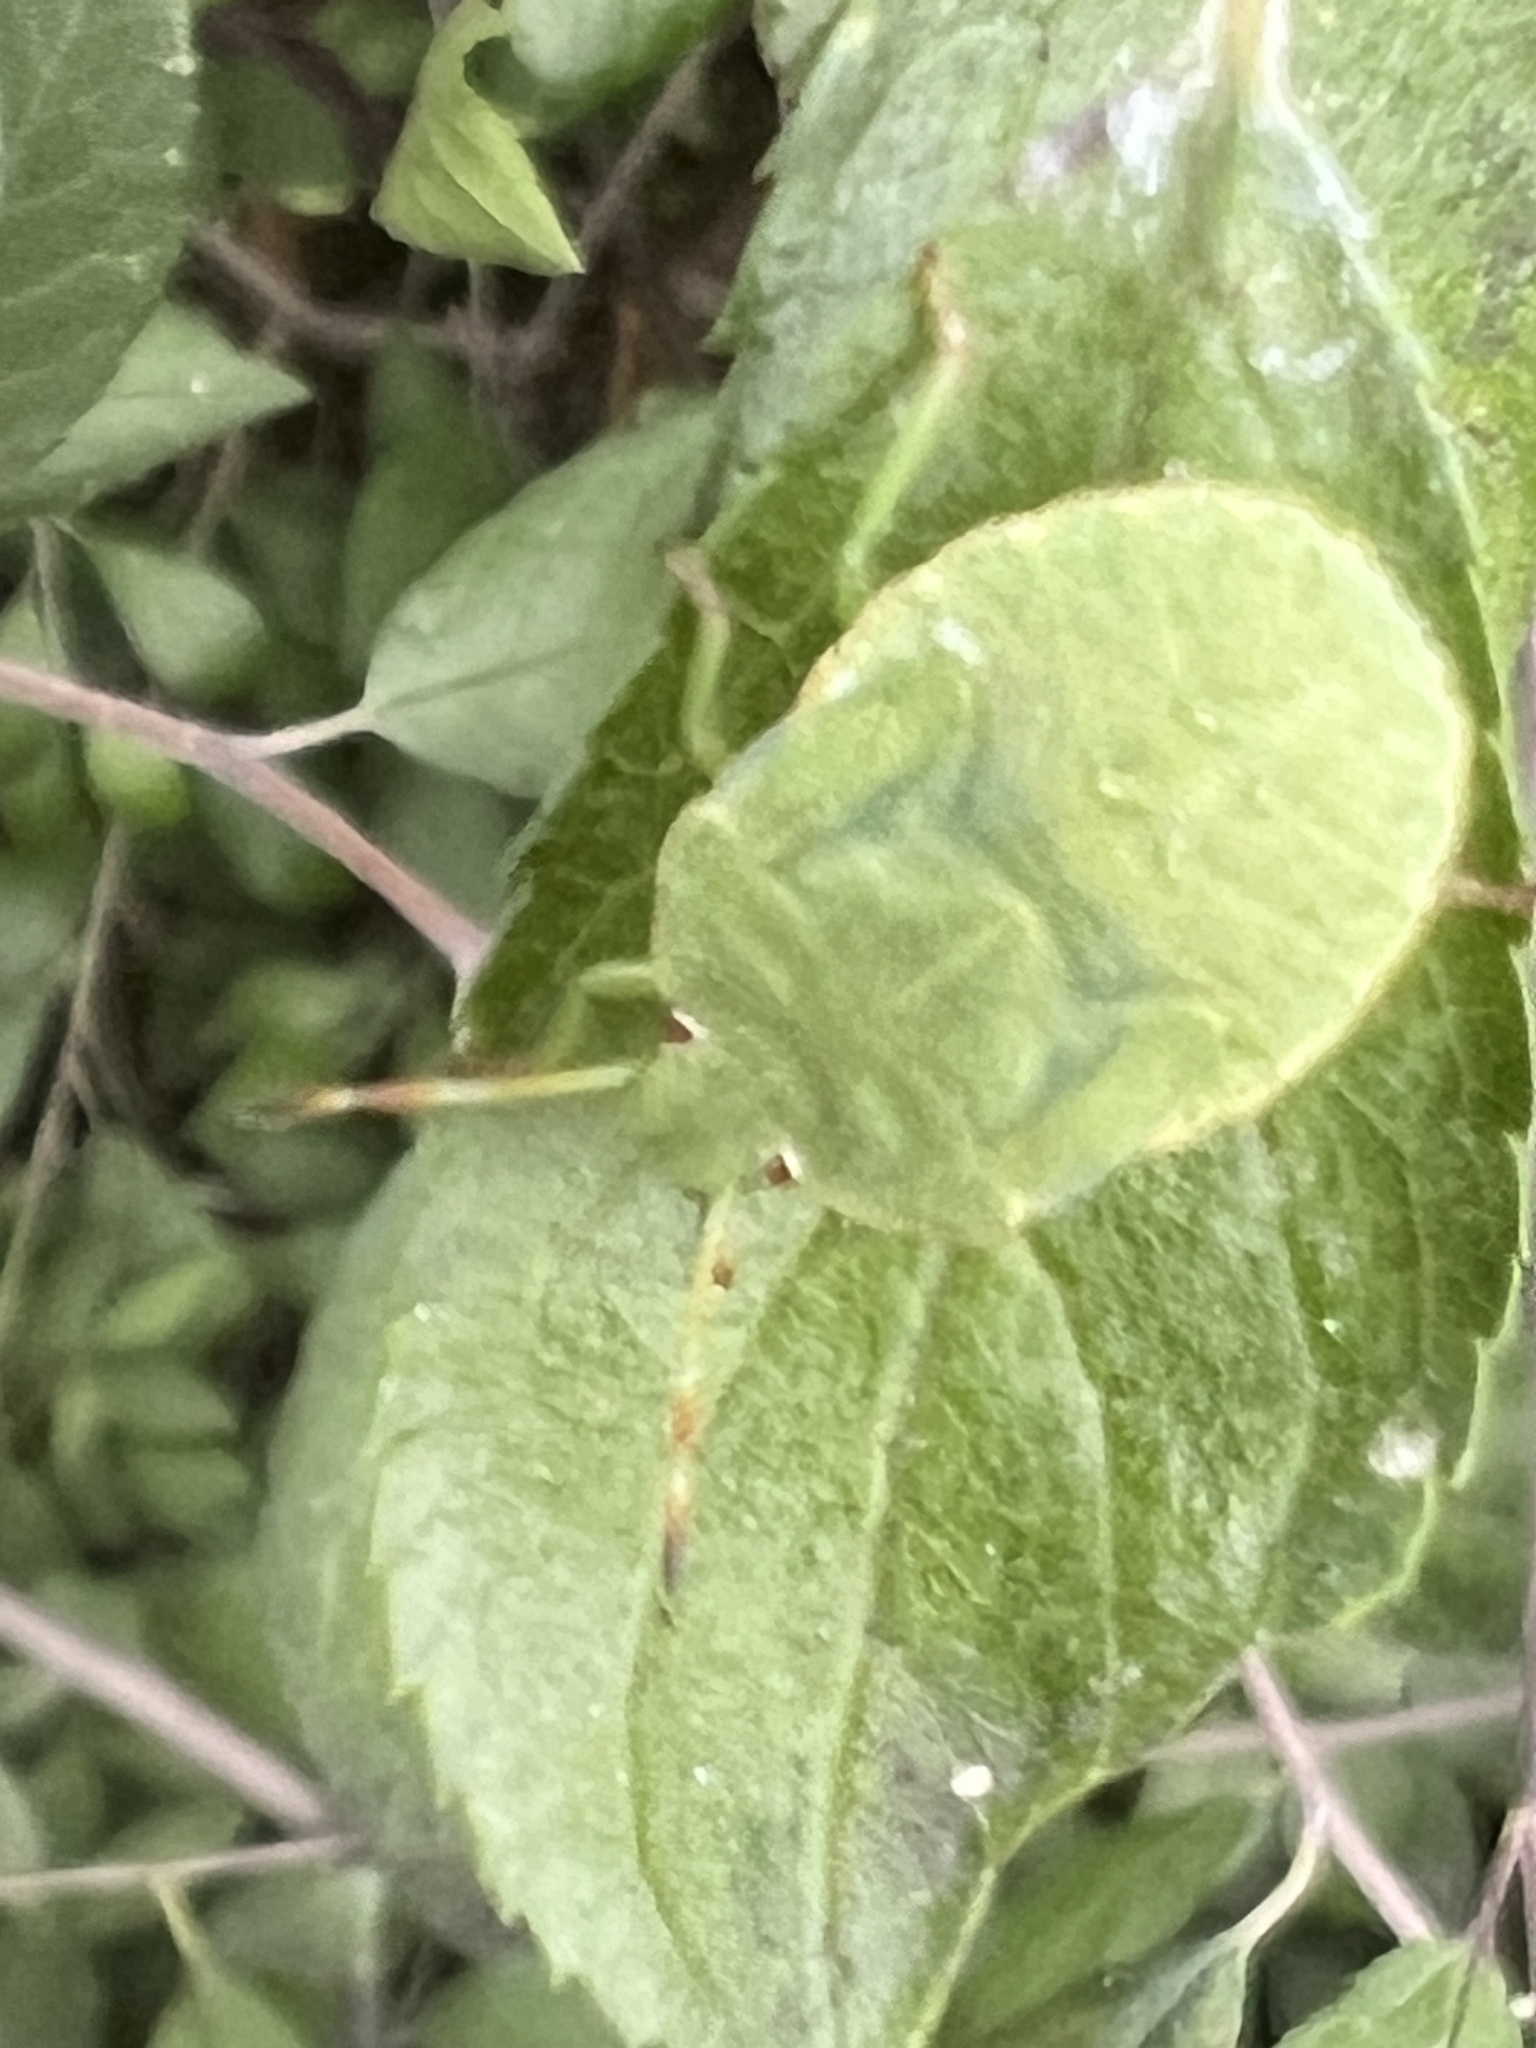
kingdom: Animalia
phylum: Arthropoda
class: Insecta
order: Hemiptera
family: Pentatomidae
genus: Palomena
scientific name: Palomena prasina
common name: Green shieldbug
